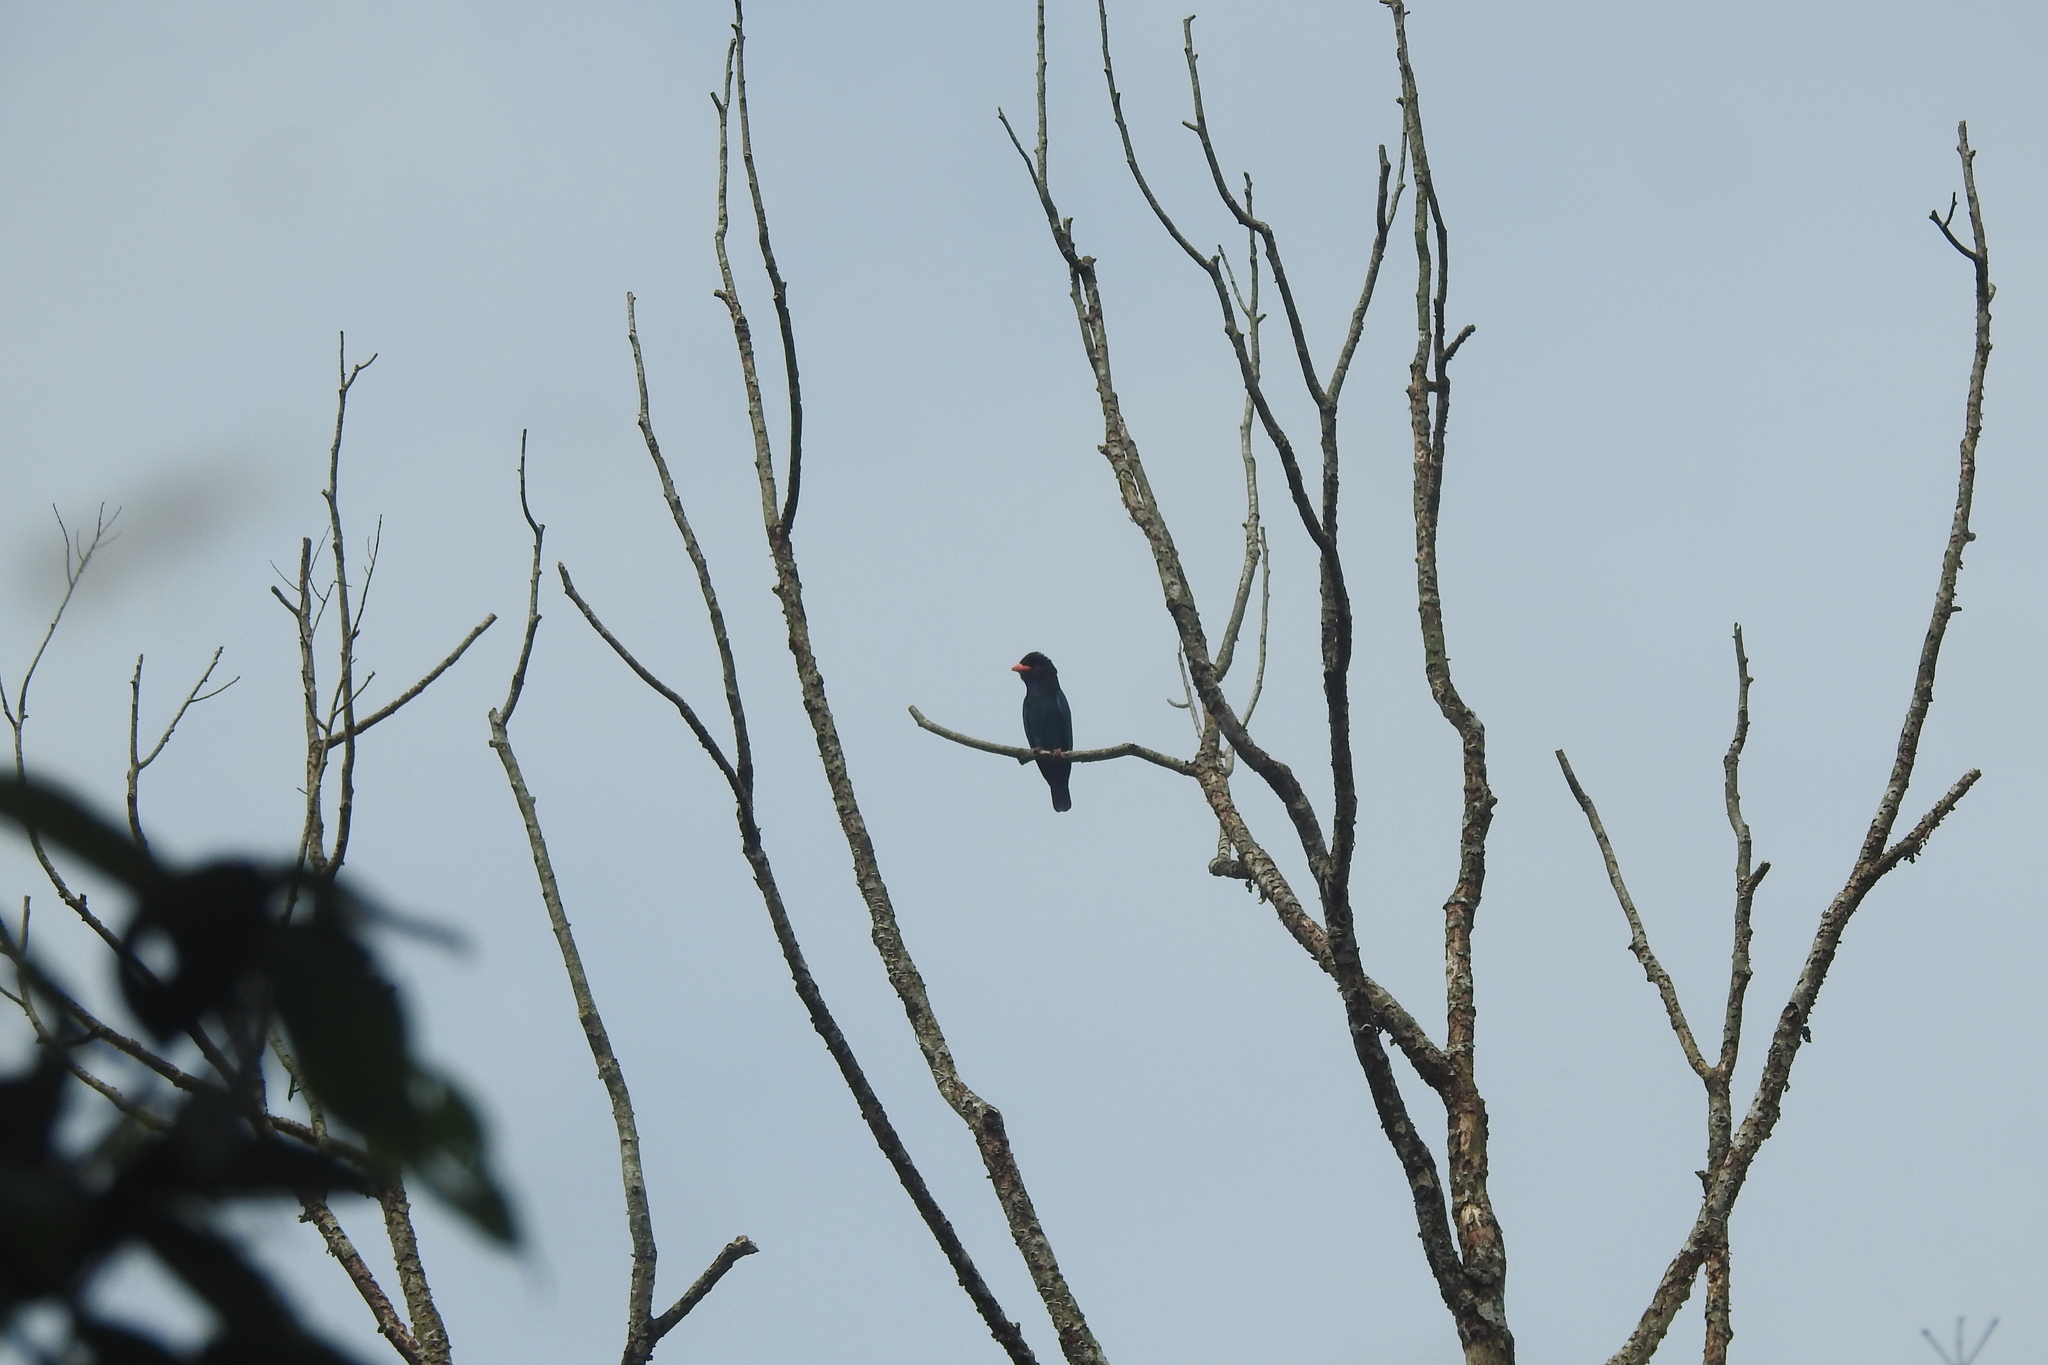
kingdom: Animalia
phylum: Chordata
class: Aves
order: Coraciiformes
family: Coraciidae
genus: Eurystomus
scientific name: Eurystomus orientalis
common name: Oriental dollarbird
